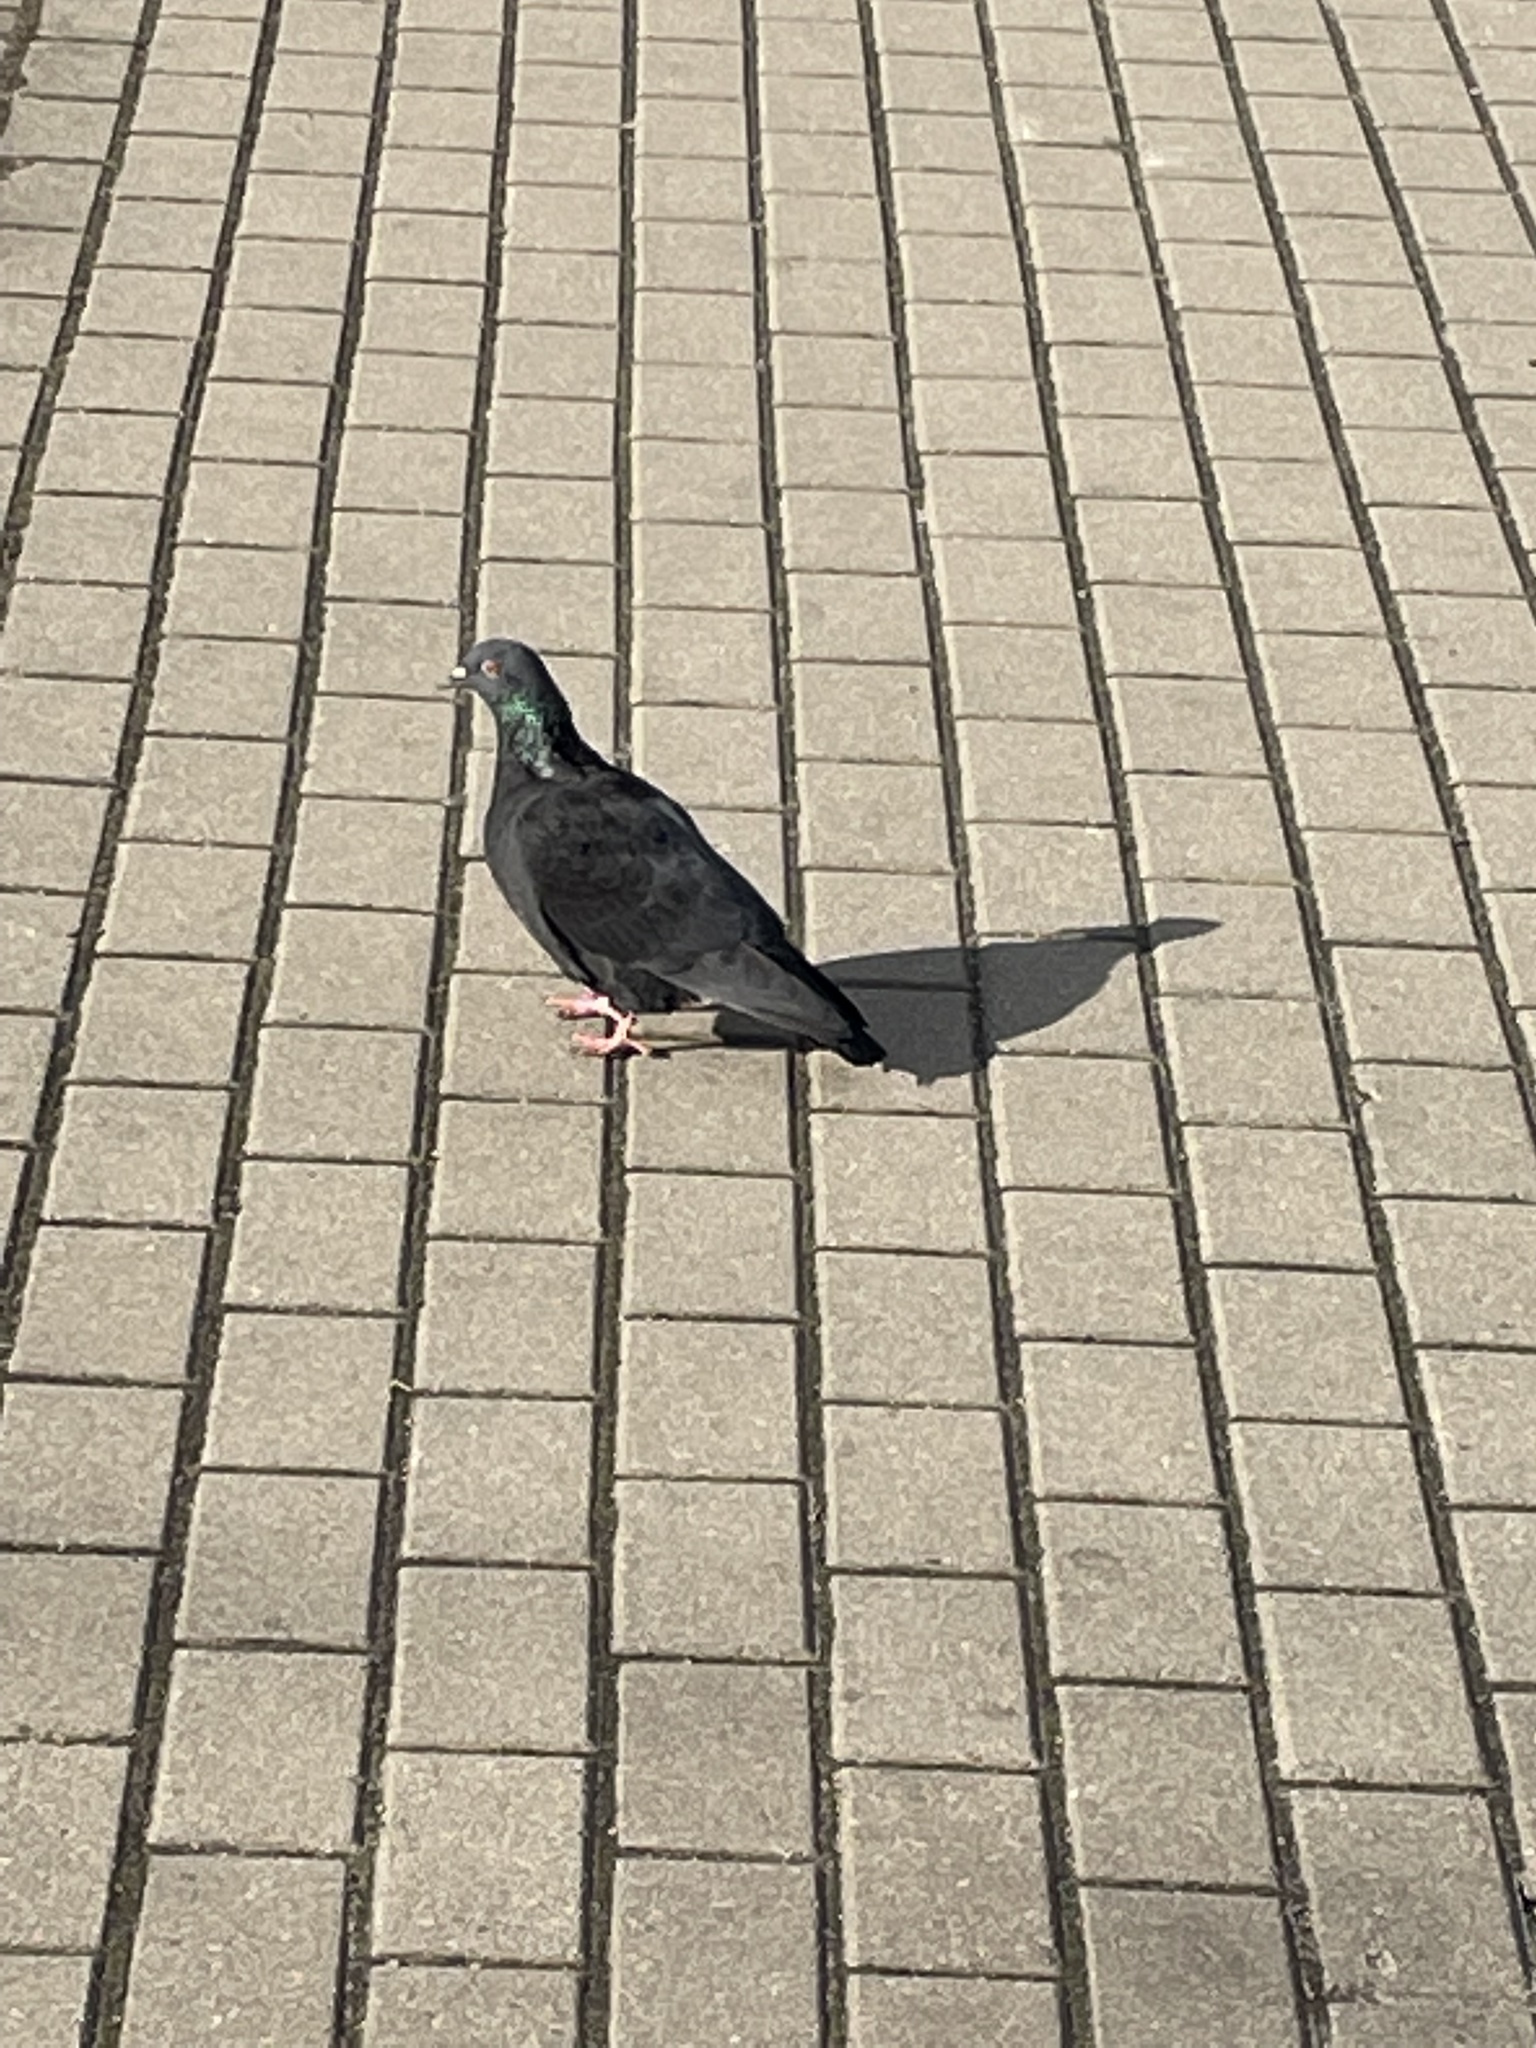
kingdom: Animalia
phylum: Chordata
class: Aves
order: Columbiformes
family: Columbidae
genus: Columba
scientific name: Columba livia
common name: Rock pigeon
